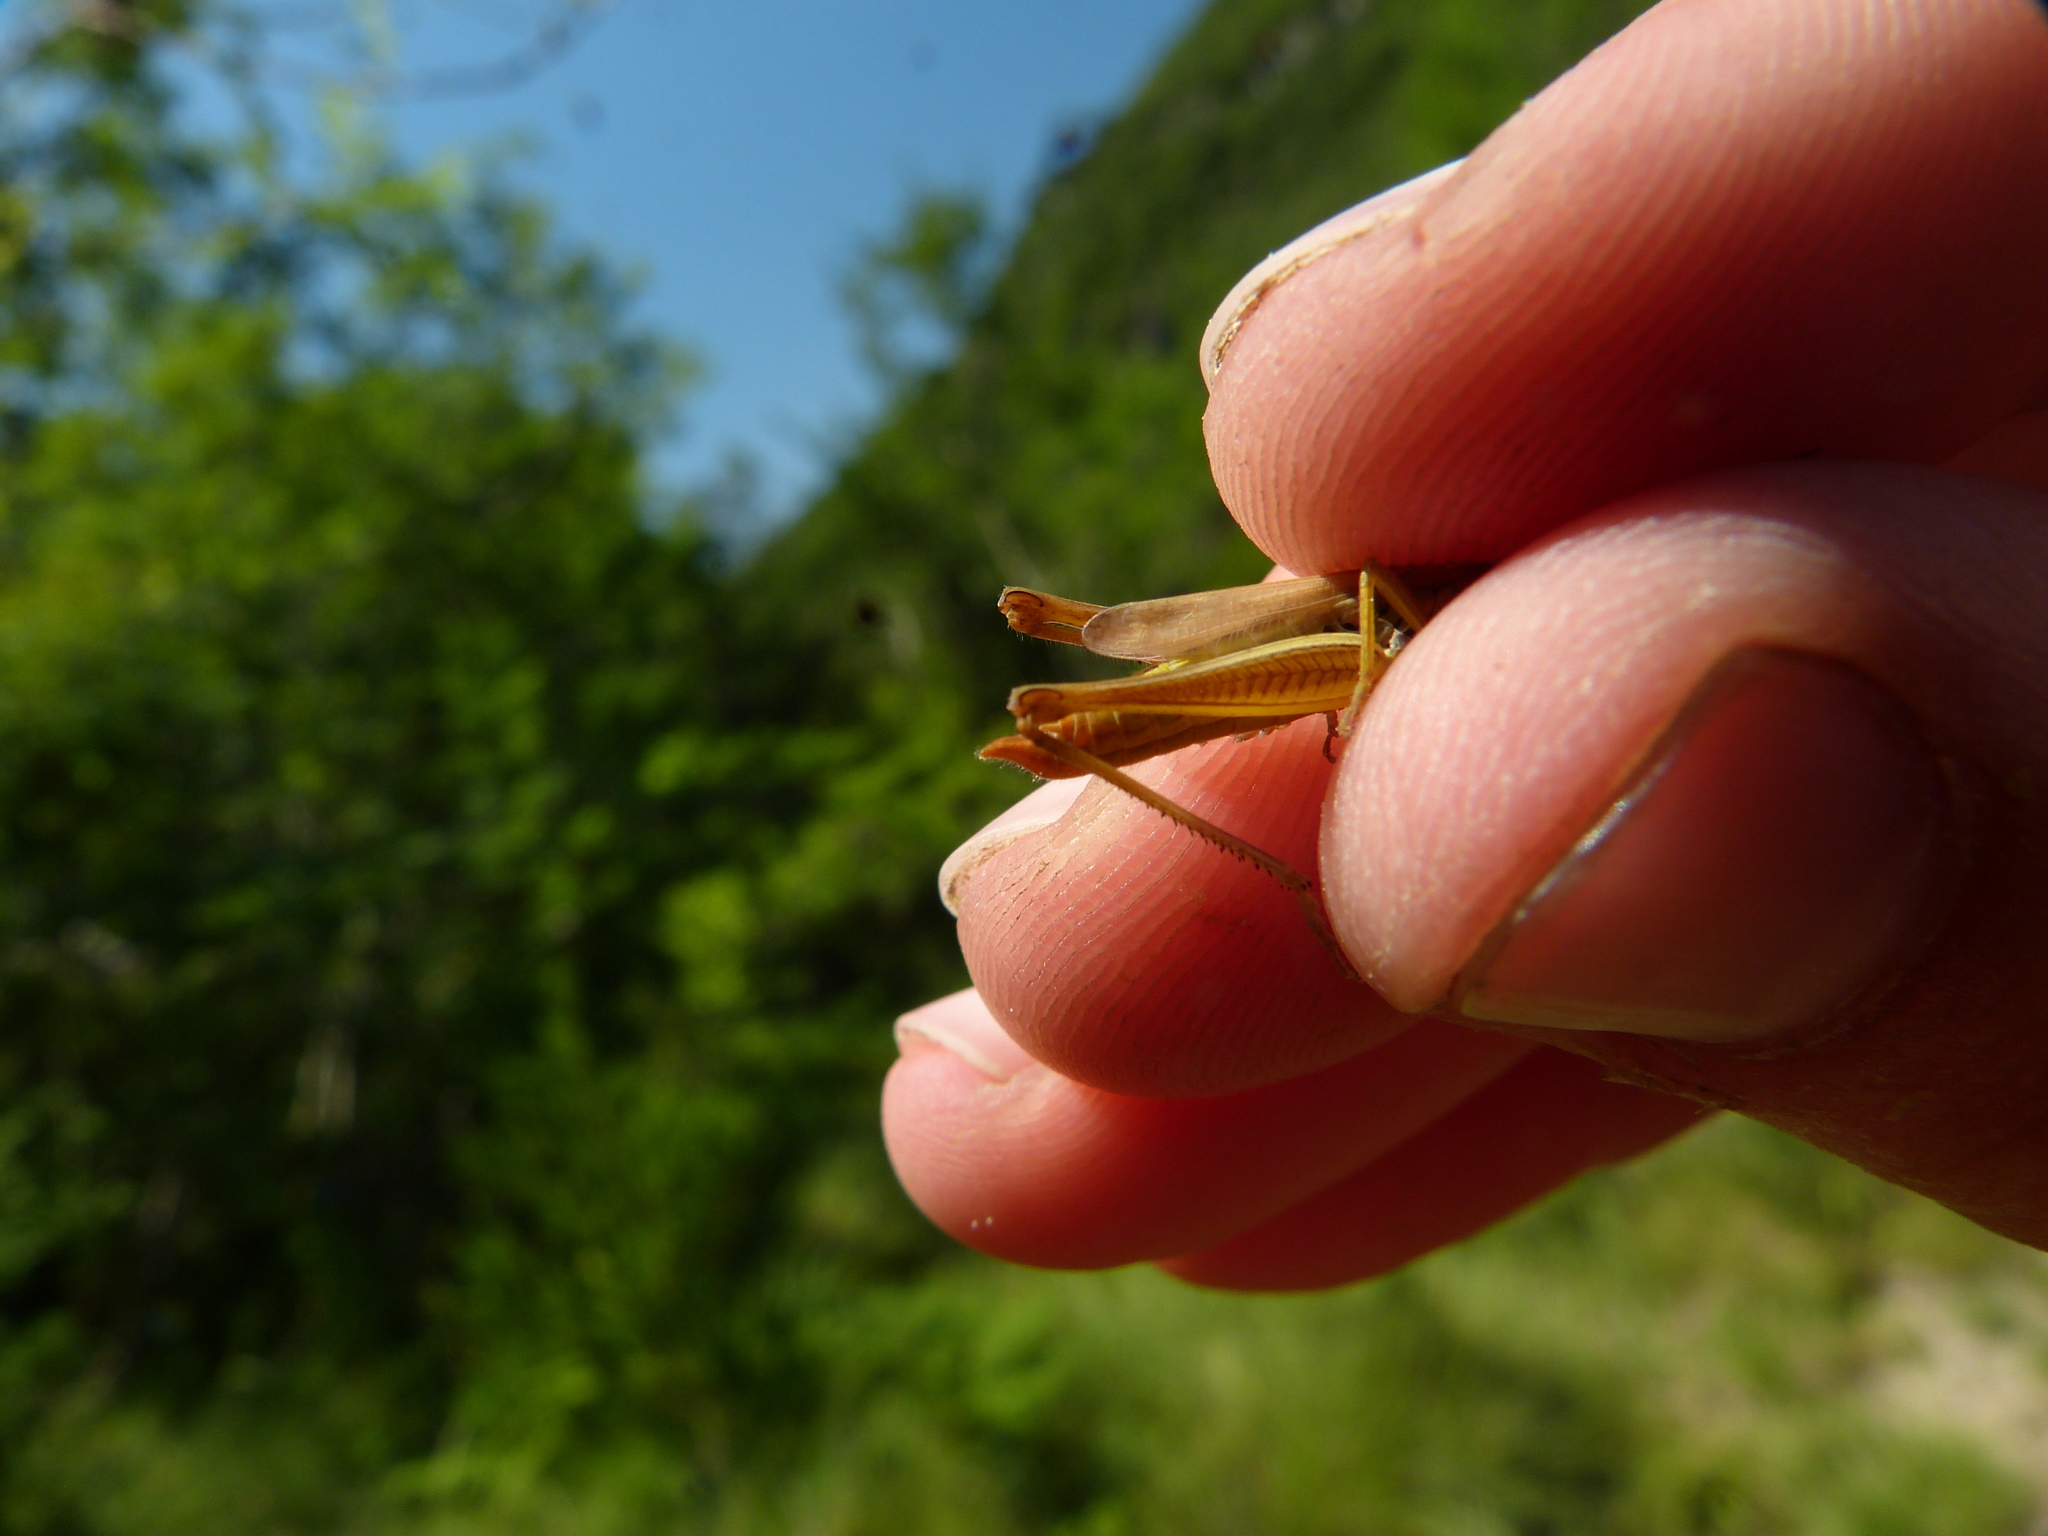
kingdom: Animalia
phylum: Arthropoda
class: Insecta
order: Orthoptera
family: Acrididae
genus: Euchorthippus
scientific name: Euchorthippus declivus
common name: Common straw grasshopper
